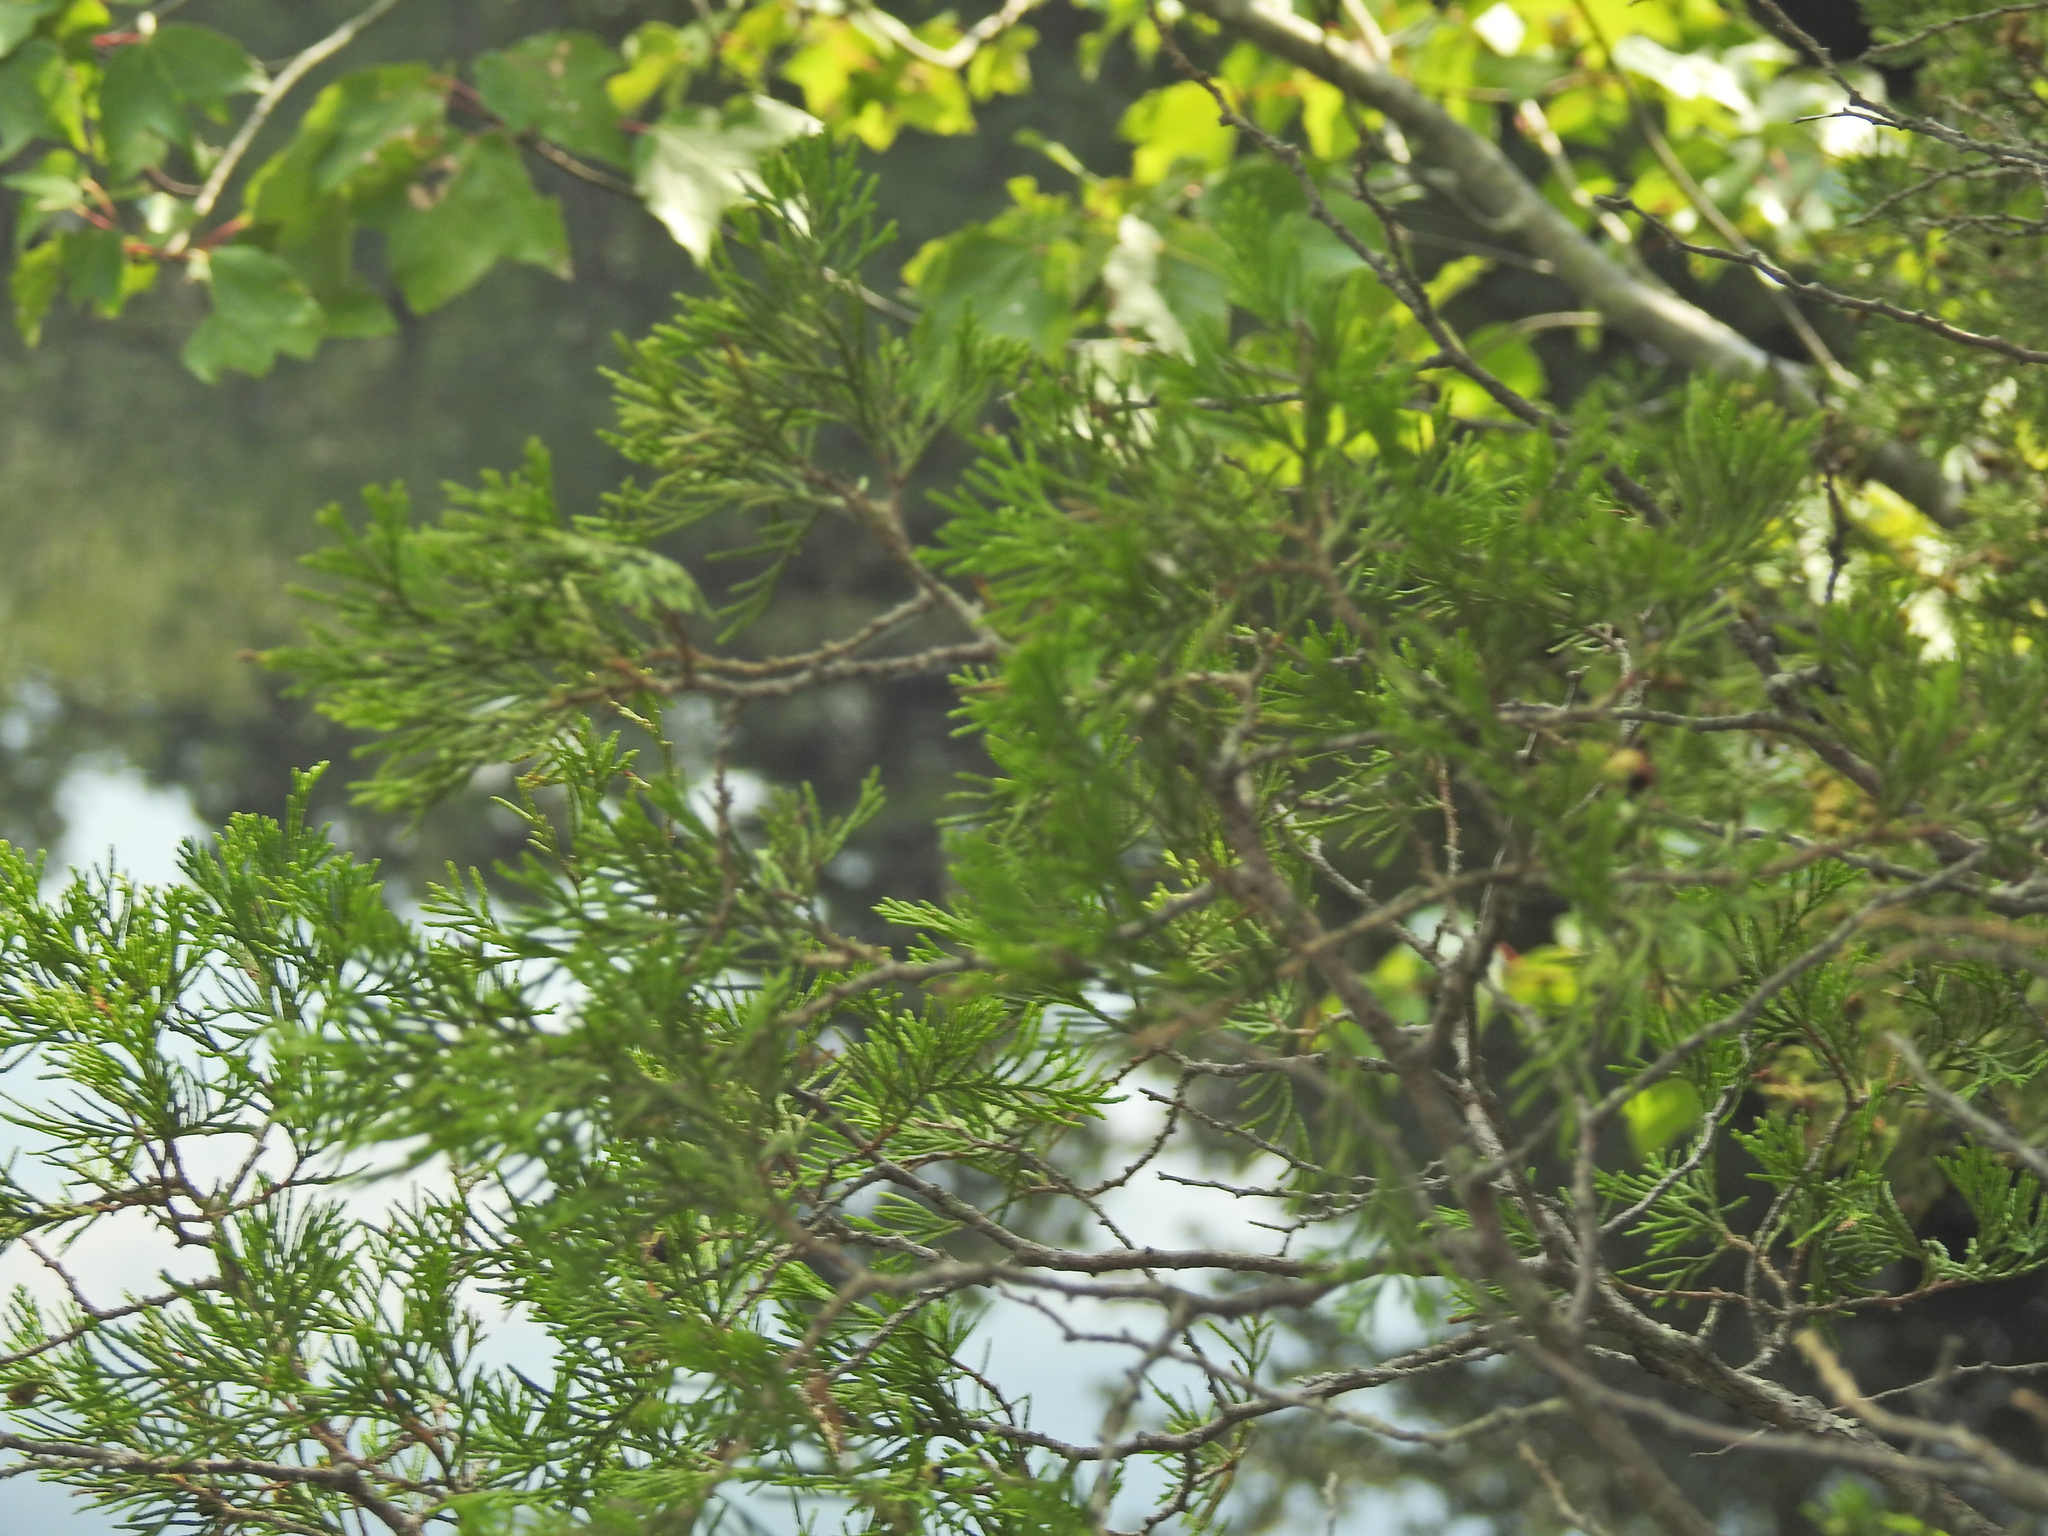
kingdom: Plantae
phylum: Tracheophyta
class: Pinopsida
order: Pinales
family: Cupressaceae
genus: Chamaecyparis
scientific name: Chamaecyparis thyoides
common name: Atlantic white cedar
